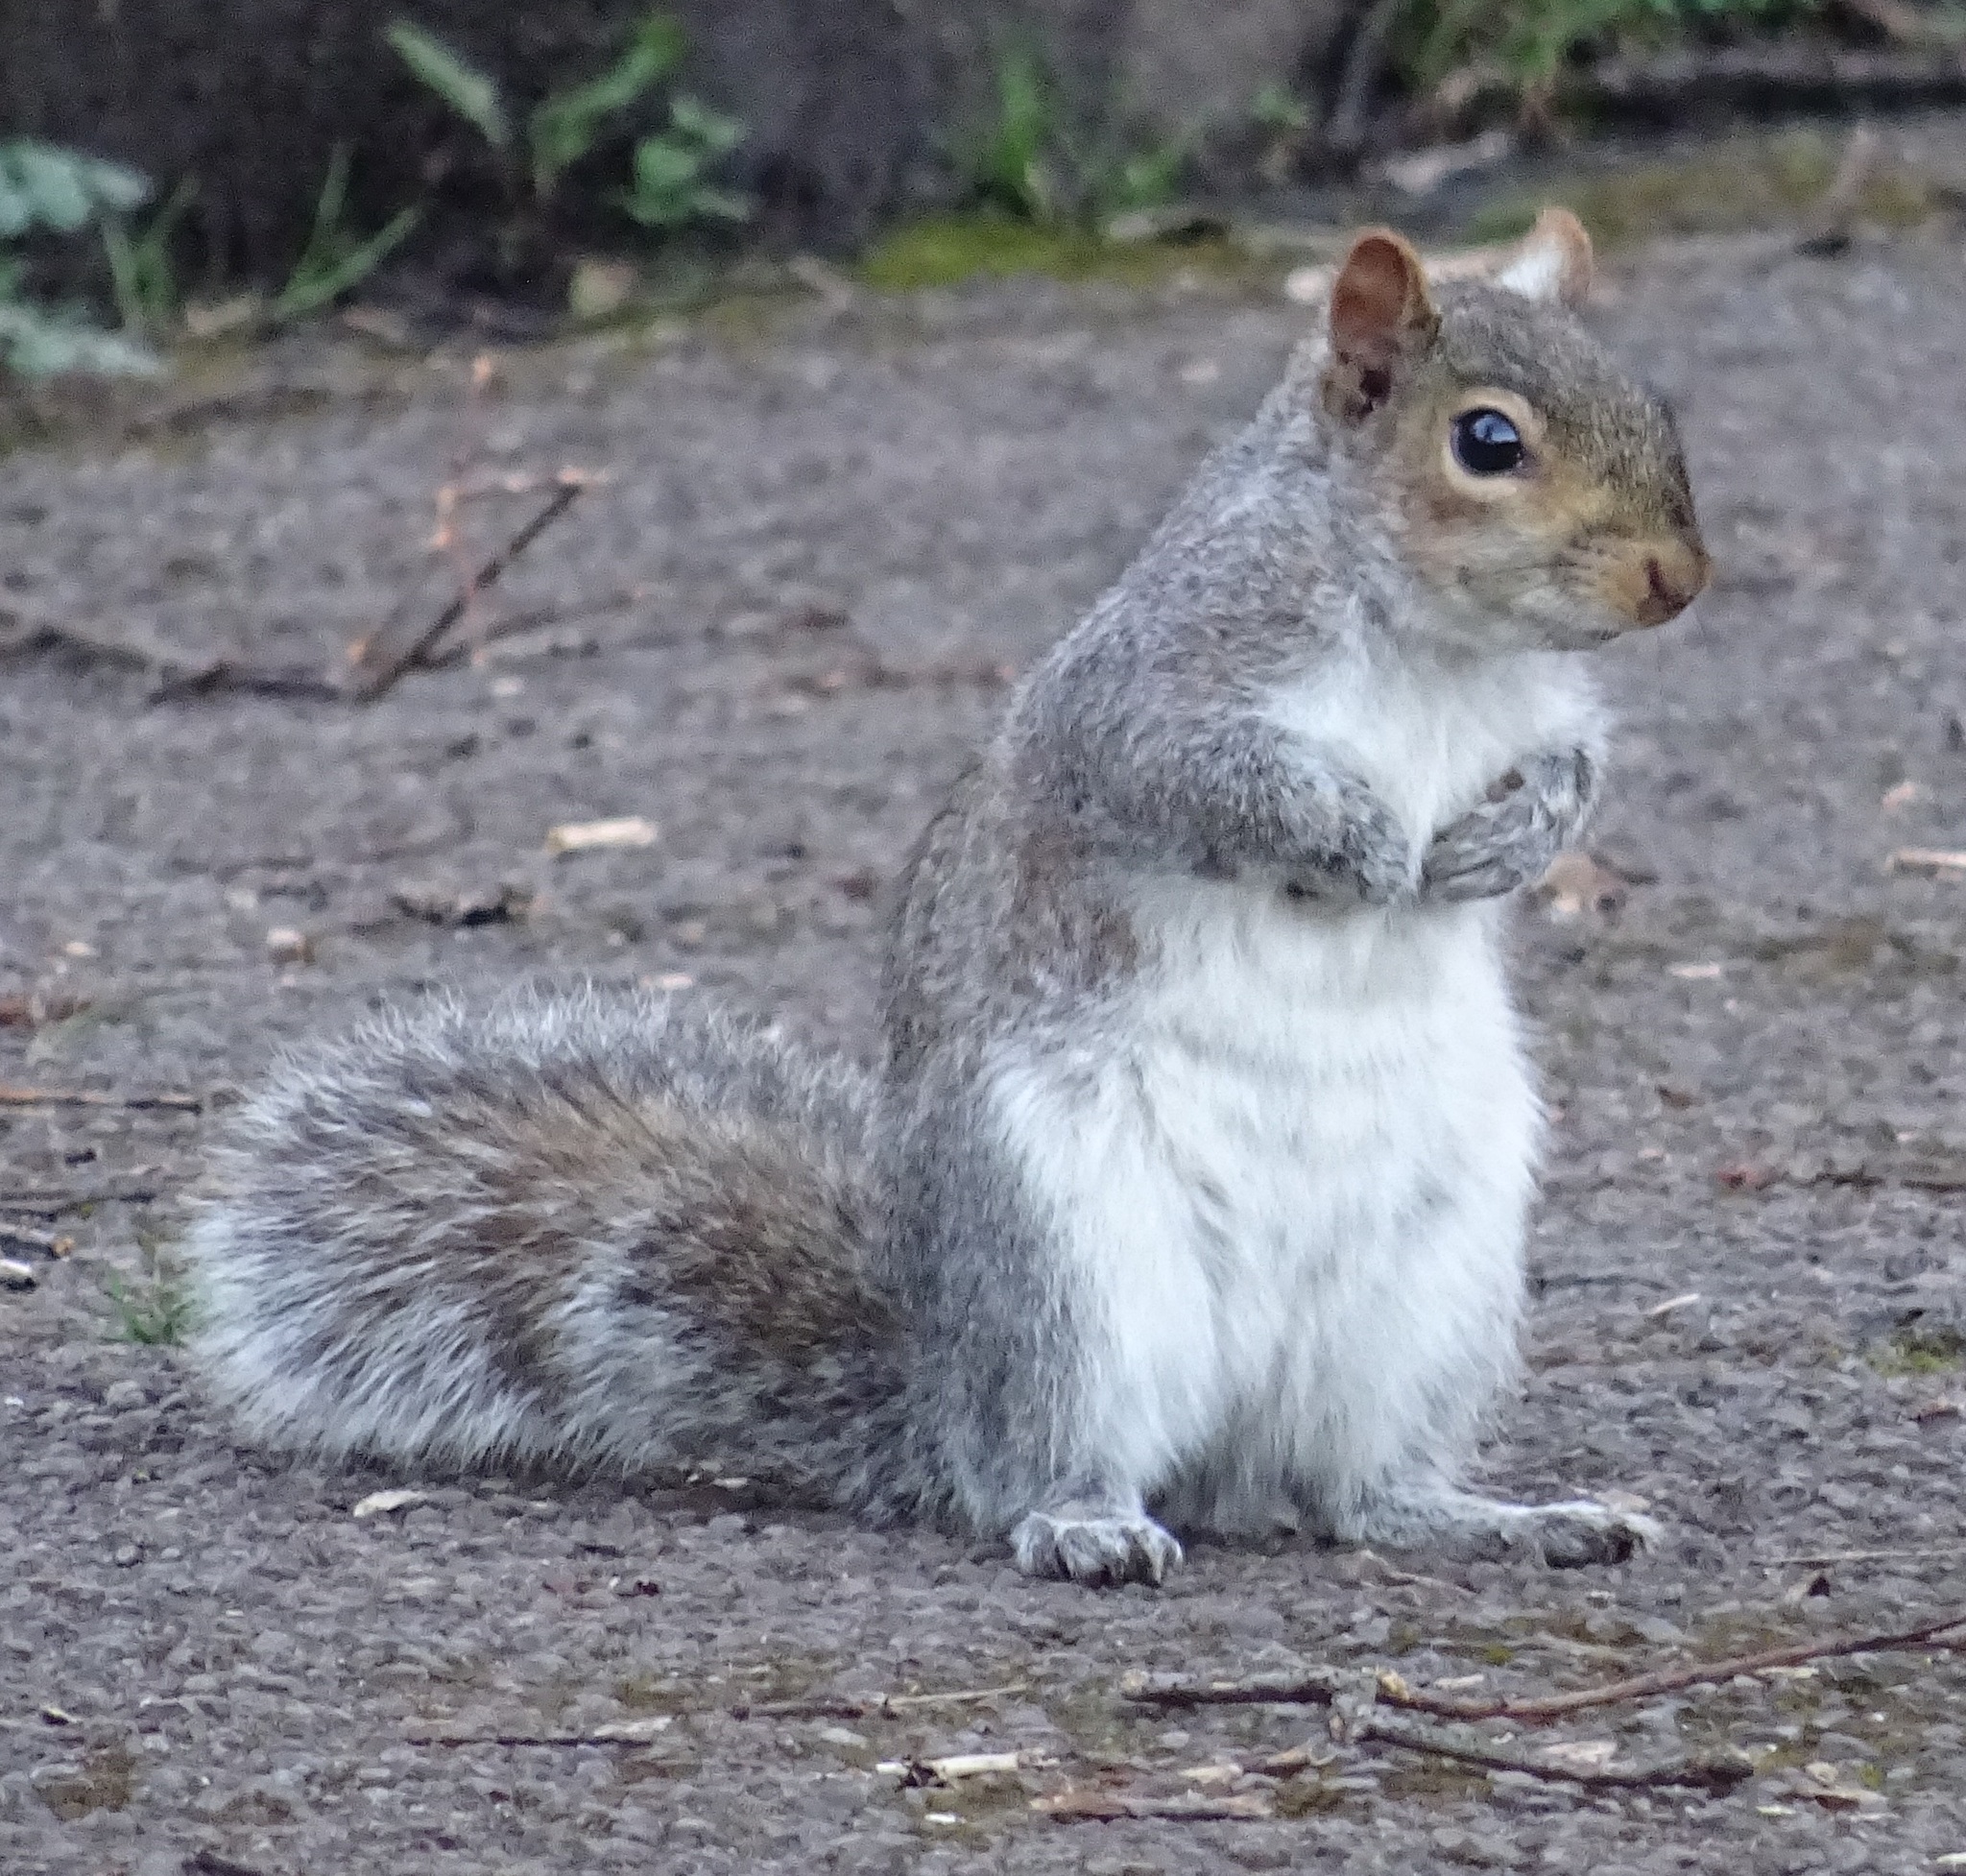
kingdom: Animalia
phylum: Chordata
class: Mammalia
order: Rodentia
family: Sciuridae
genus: Sciurus
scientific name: Sciurus carolinensis
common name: Eastern gray squirrel
